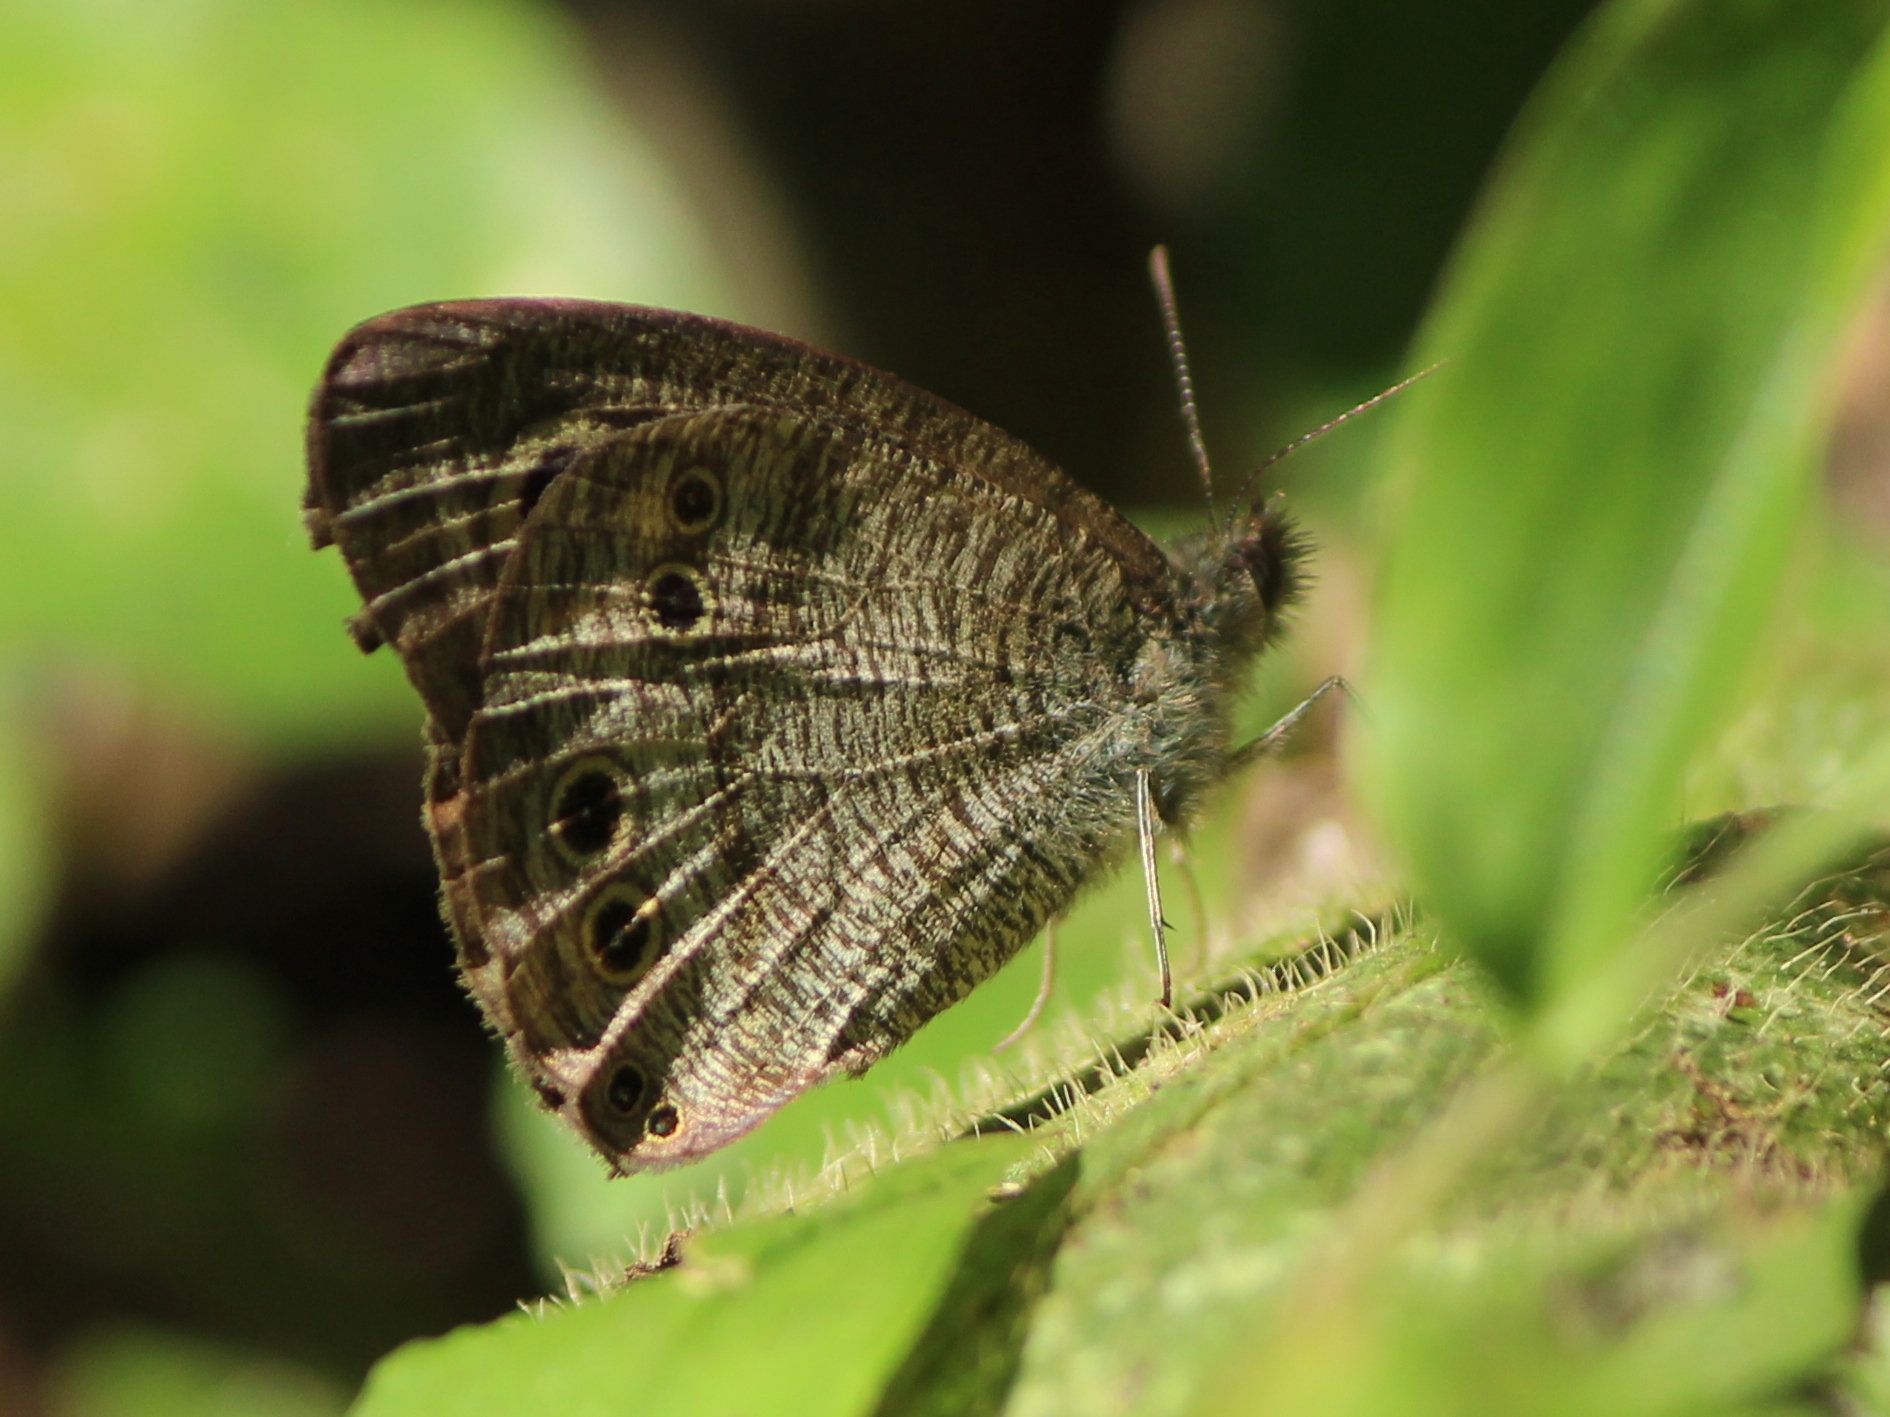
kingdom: Animalia
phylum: Arthropoda
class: Insecta
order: Lepidoptera
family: Nymphalidae
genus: Ypthima
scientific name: Ypthima baldus
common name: Common five-ring
